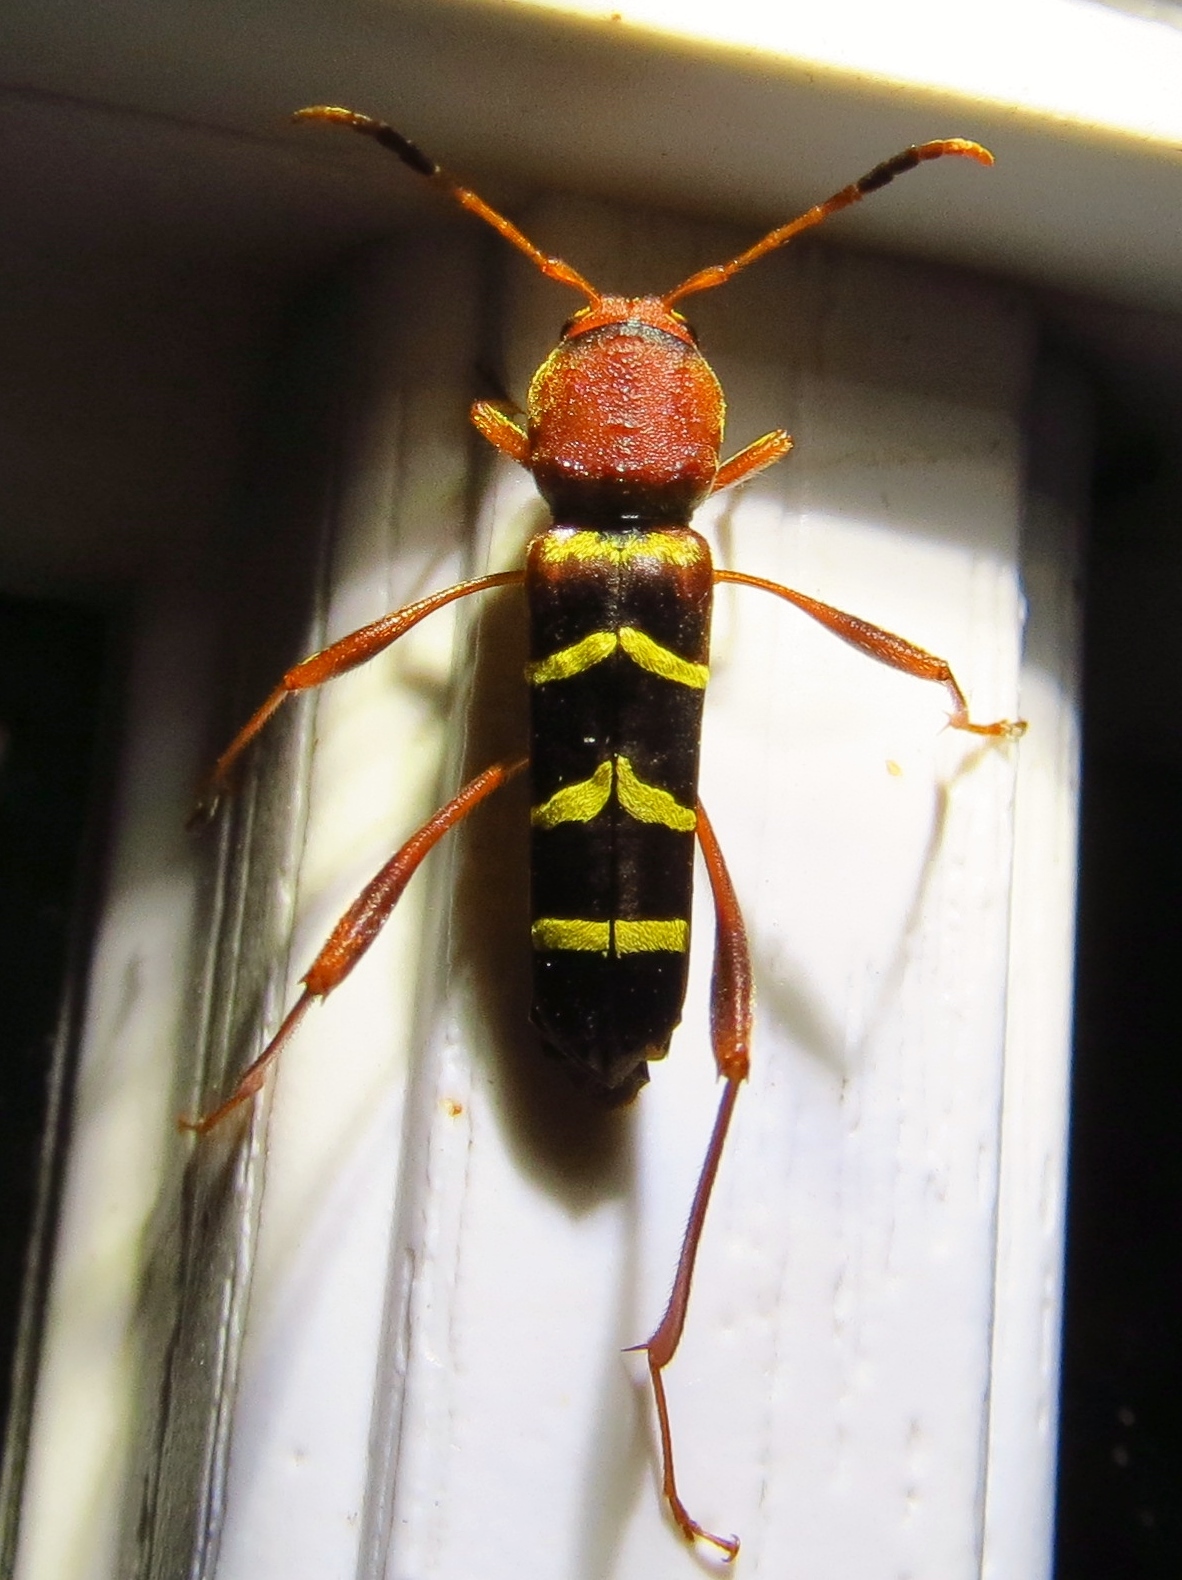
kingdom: Animalia
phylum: Arthropoda
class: Insecta
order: Coleoptera
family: Cerambycidae
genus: Neoclytus
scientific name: Neoclytus acuminatus
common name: Read-headed ash borer
